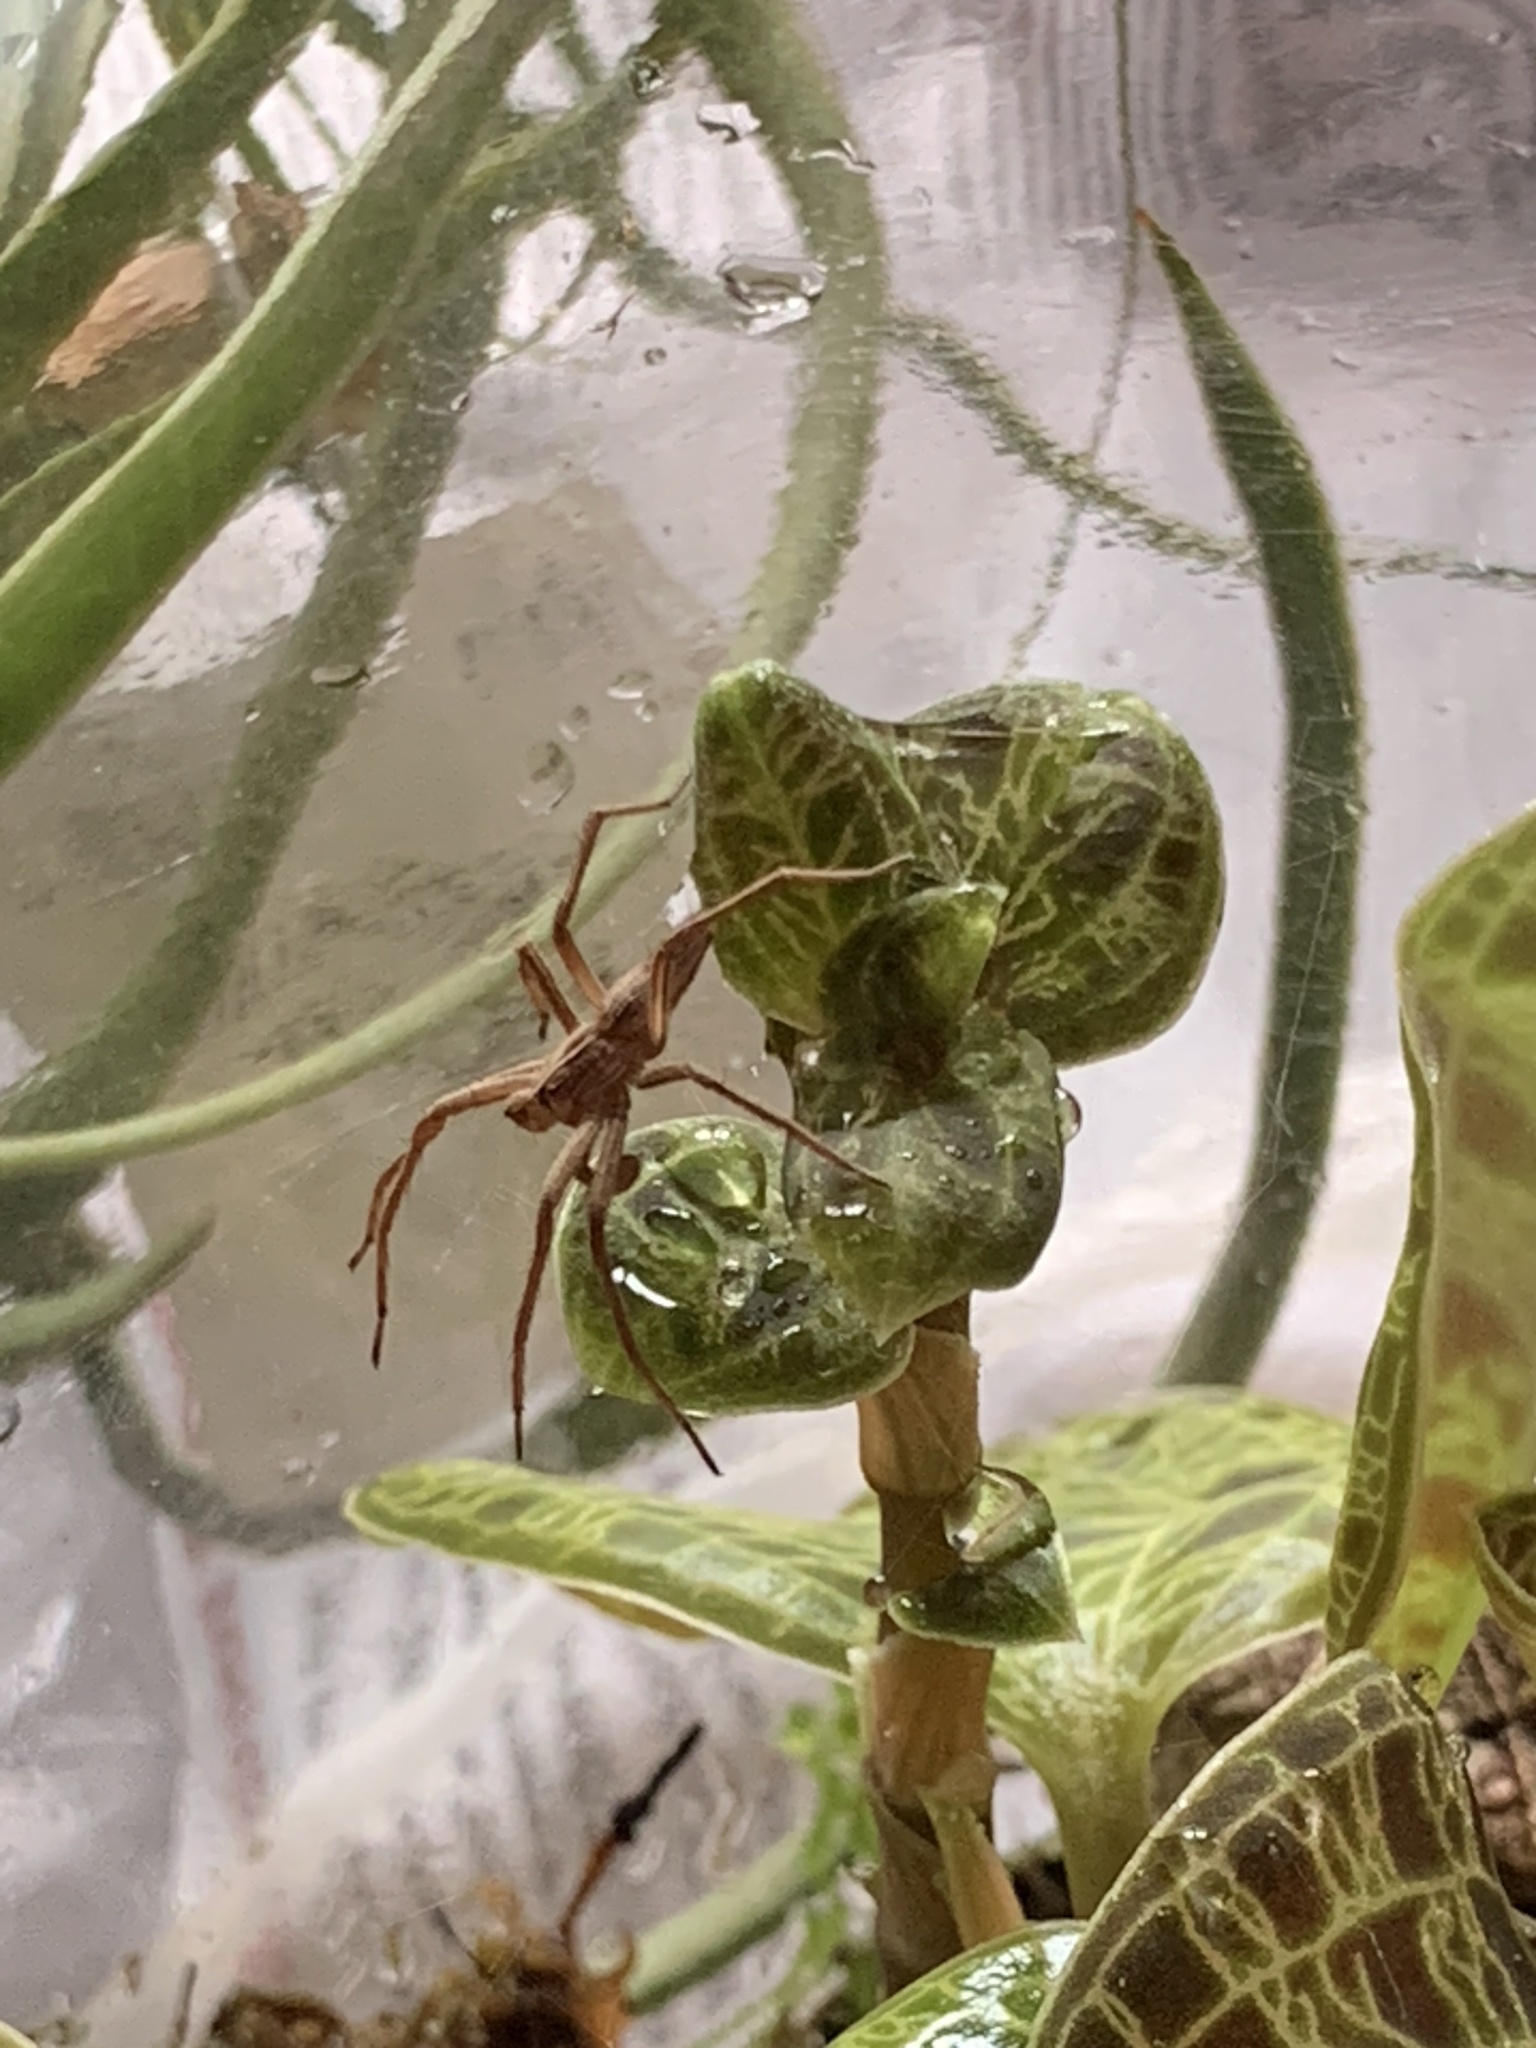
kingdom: Animalia
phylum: Arthropoda
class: Arachnida
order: Araneae
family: Pisauridae
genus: Pisaura
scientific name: Pisaura mirabilis
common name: Tent spider
